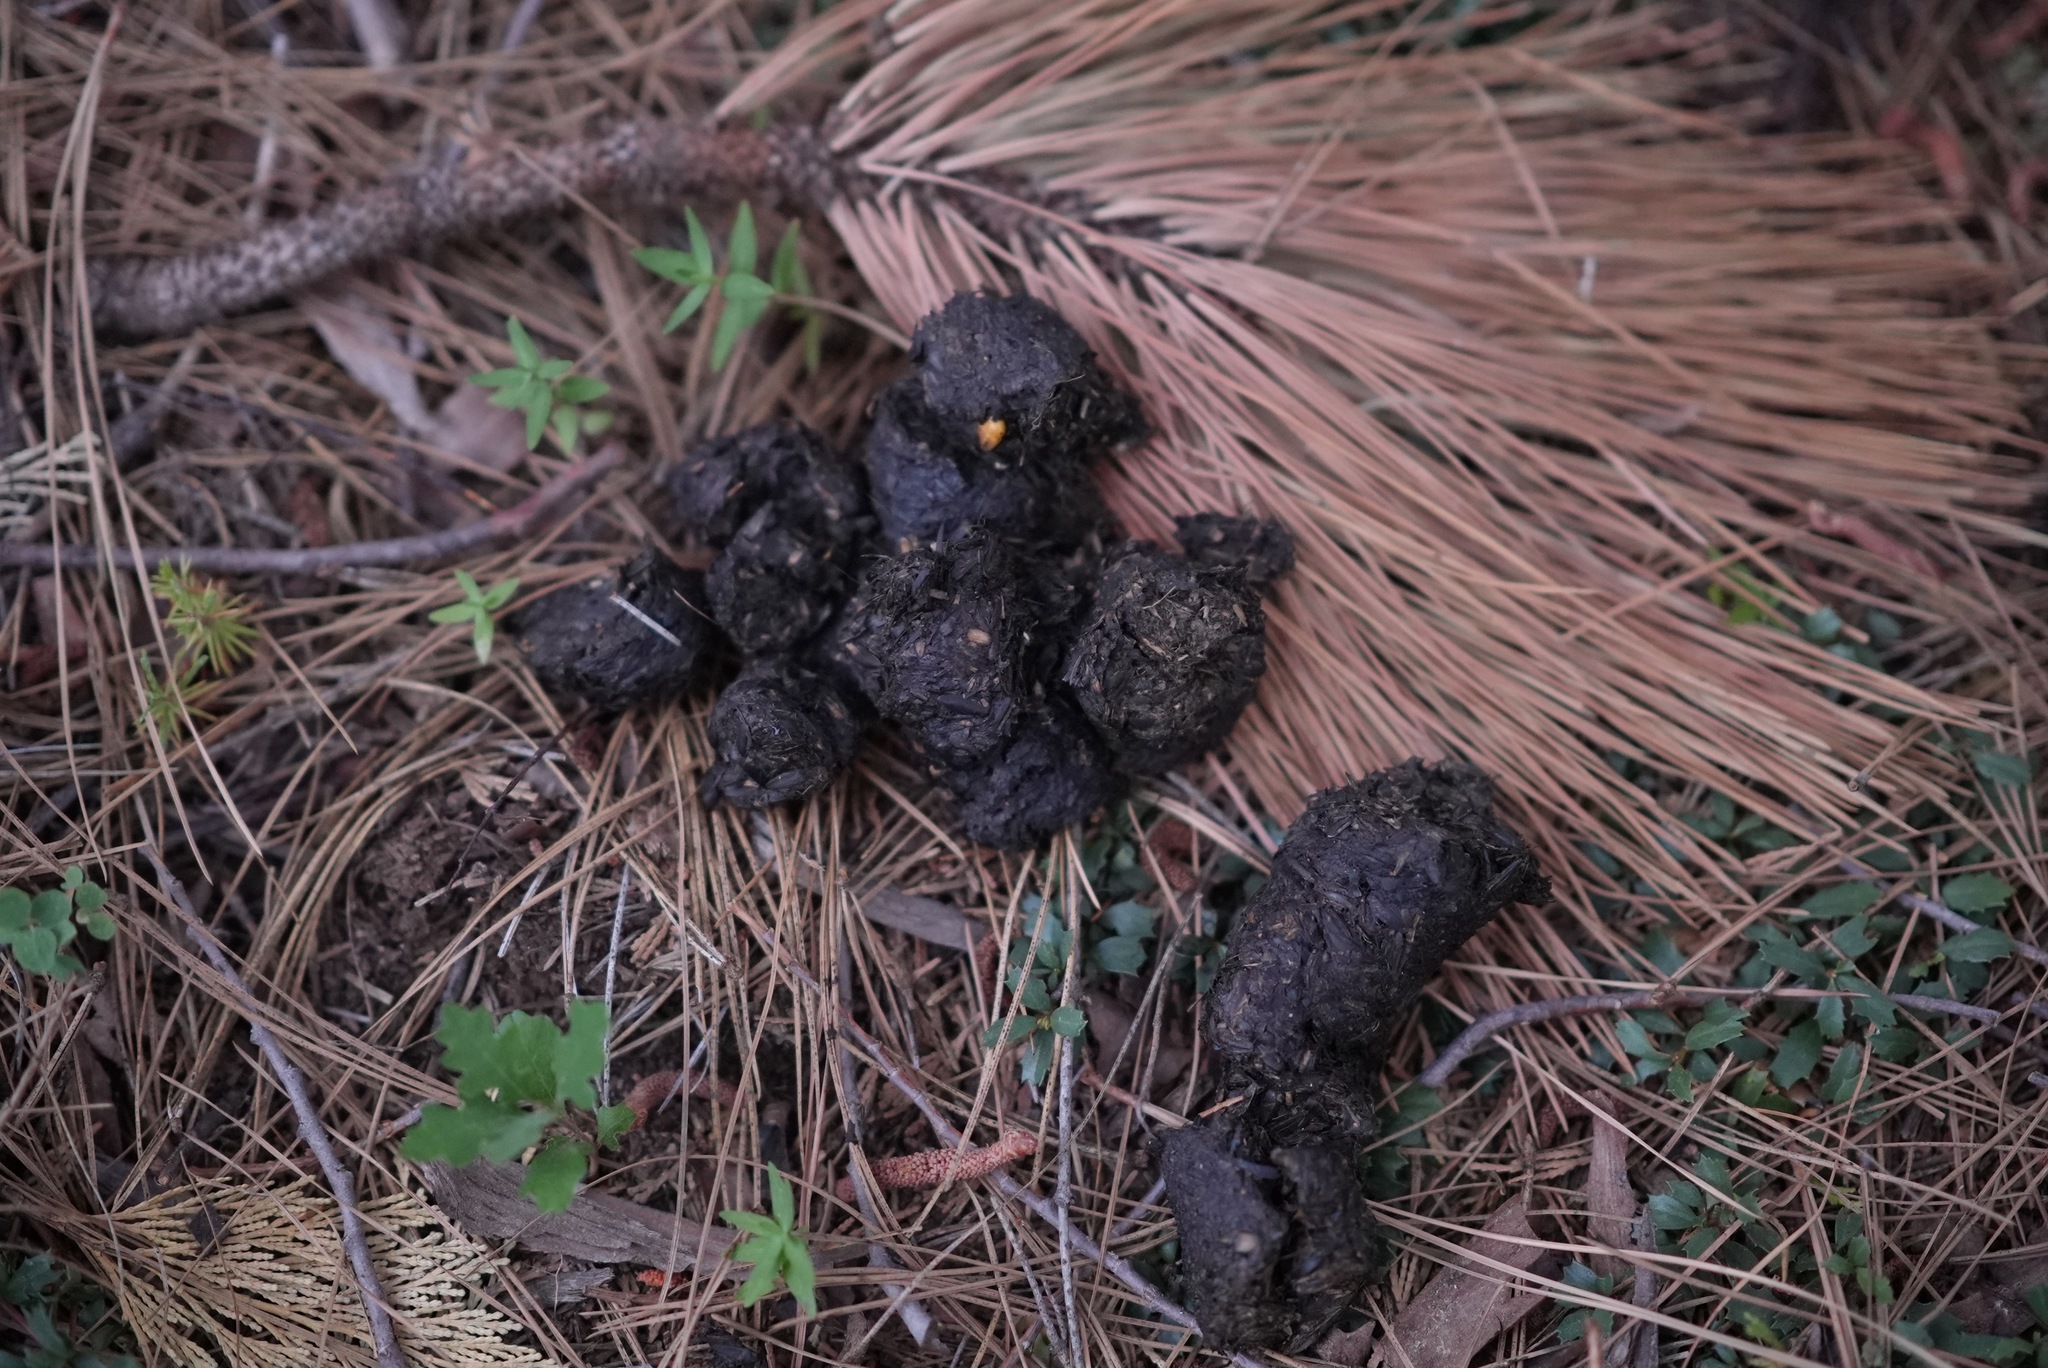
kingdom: Animalia
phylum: Chordata
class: Mammalia
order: Carnivora
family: Ursidae
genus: Ursus
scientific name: Ursus americanus
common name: American black bear
